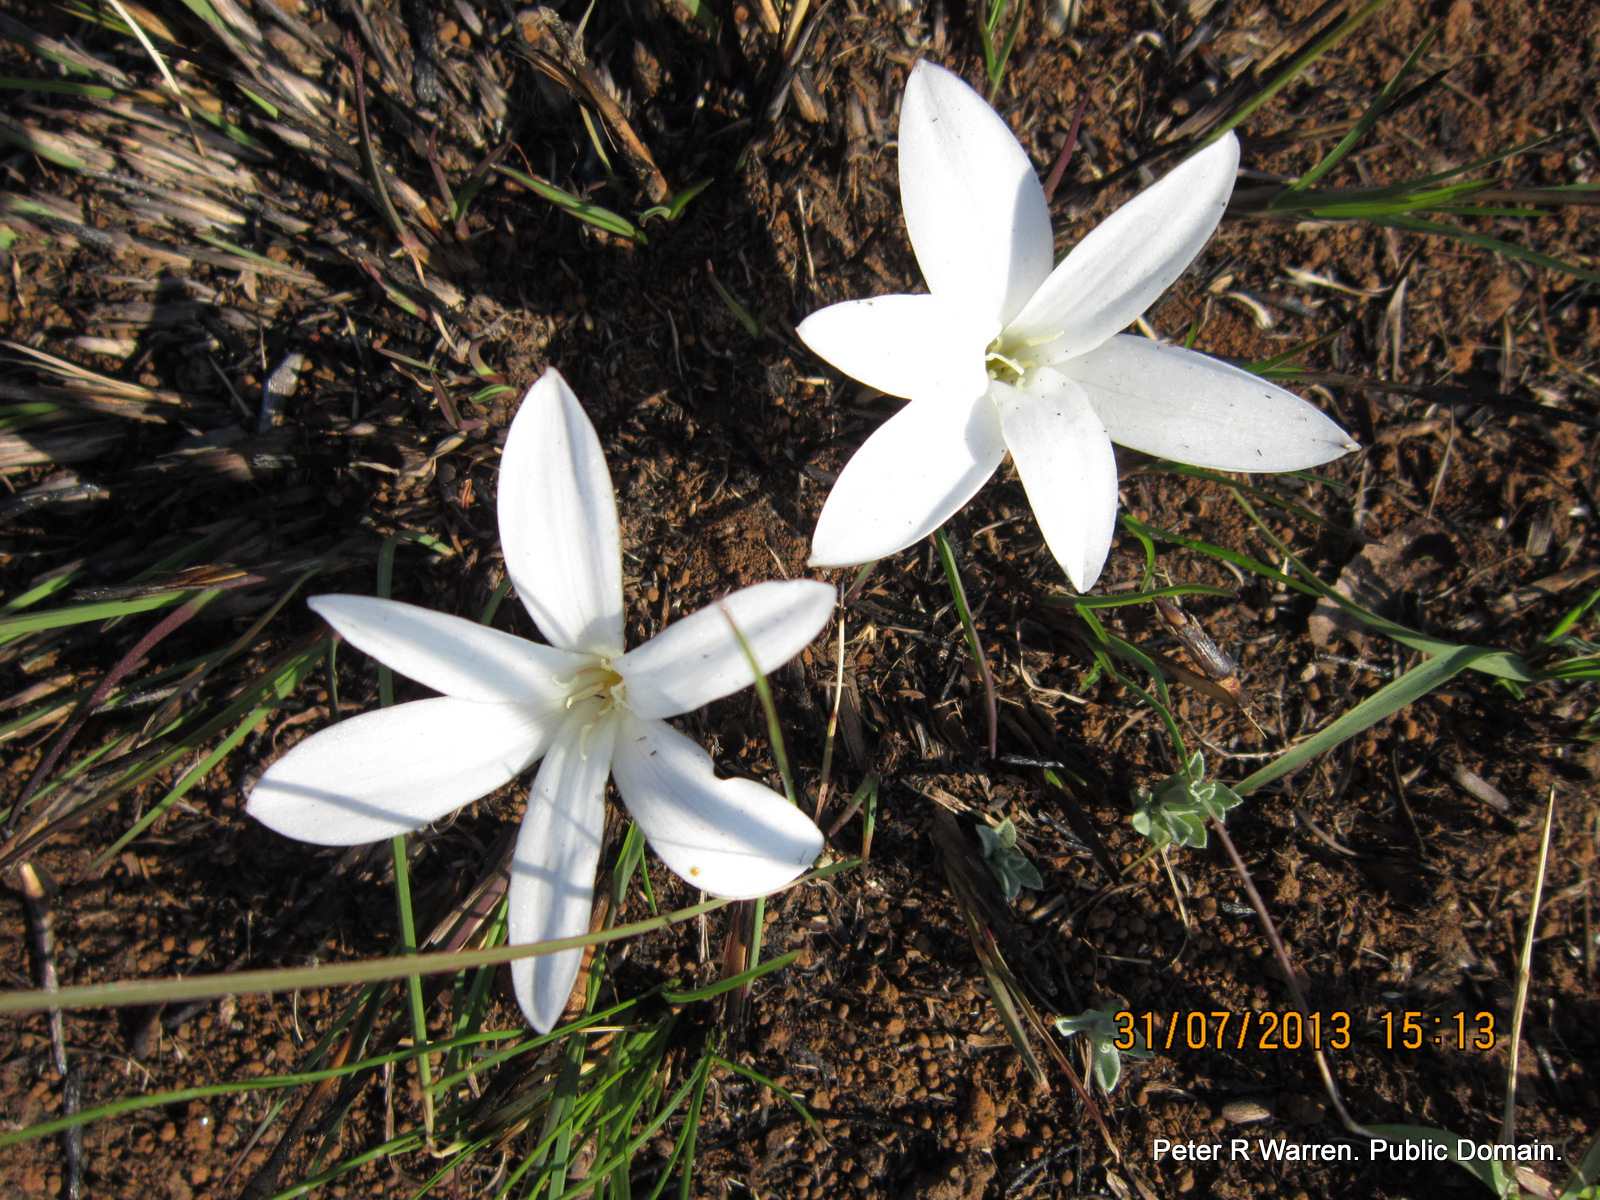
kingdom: Plantae
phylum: Tracheophyta
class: Liliopsida
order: Asparagales
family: Amaryllidaceae
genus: Apodolirion
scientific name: Apodolirion buchananii
